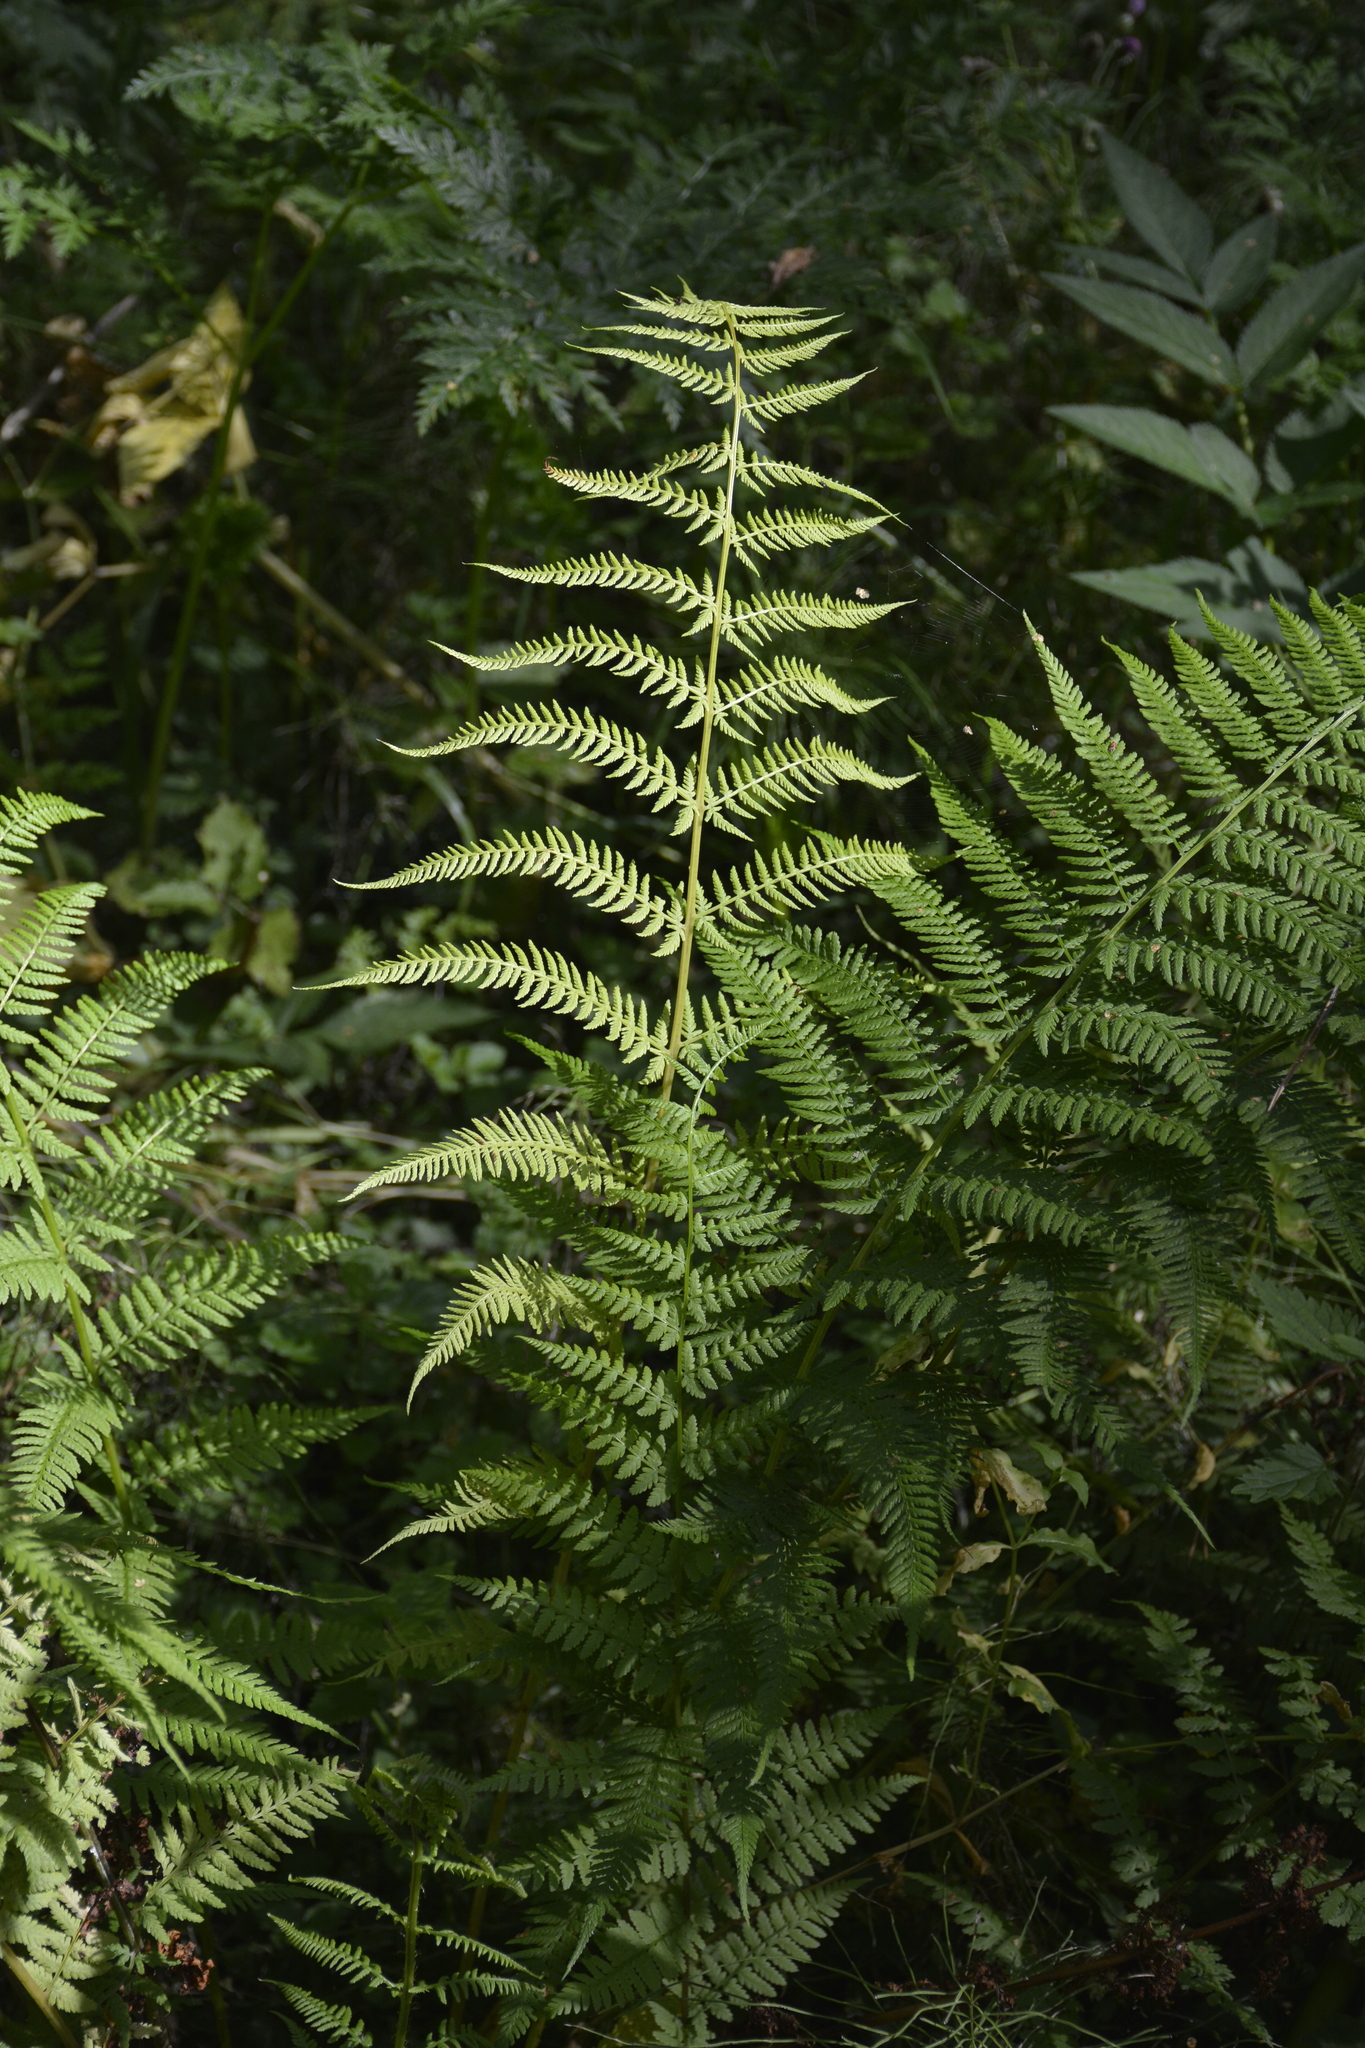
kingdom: Plantae
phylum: Tracheophyta
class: Polypodiopsida
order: Polypodiales
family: Athyriaceae
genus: Athyrium
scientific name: Athyrium filix-femina
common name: Lady fern
